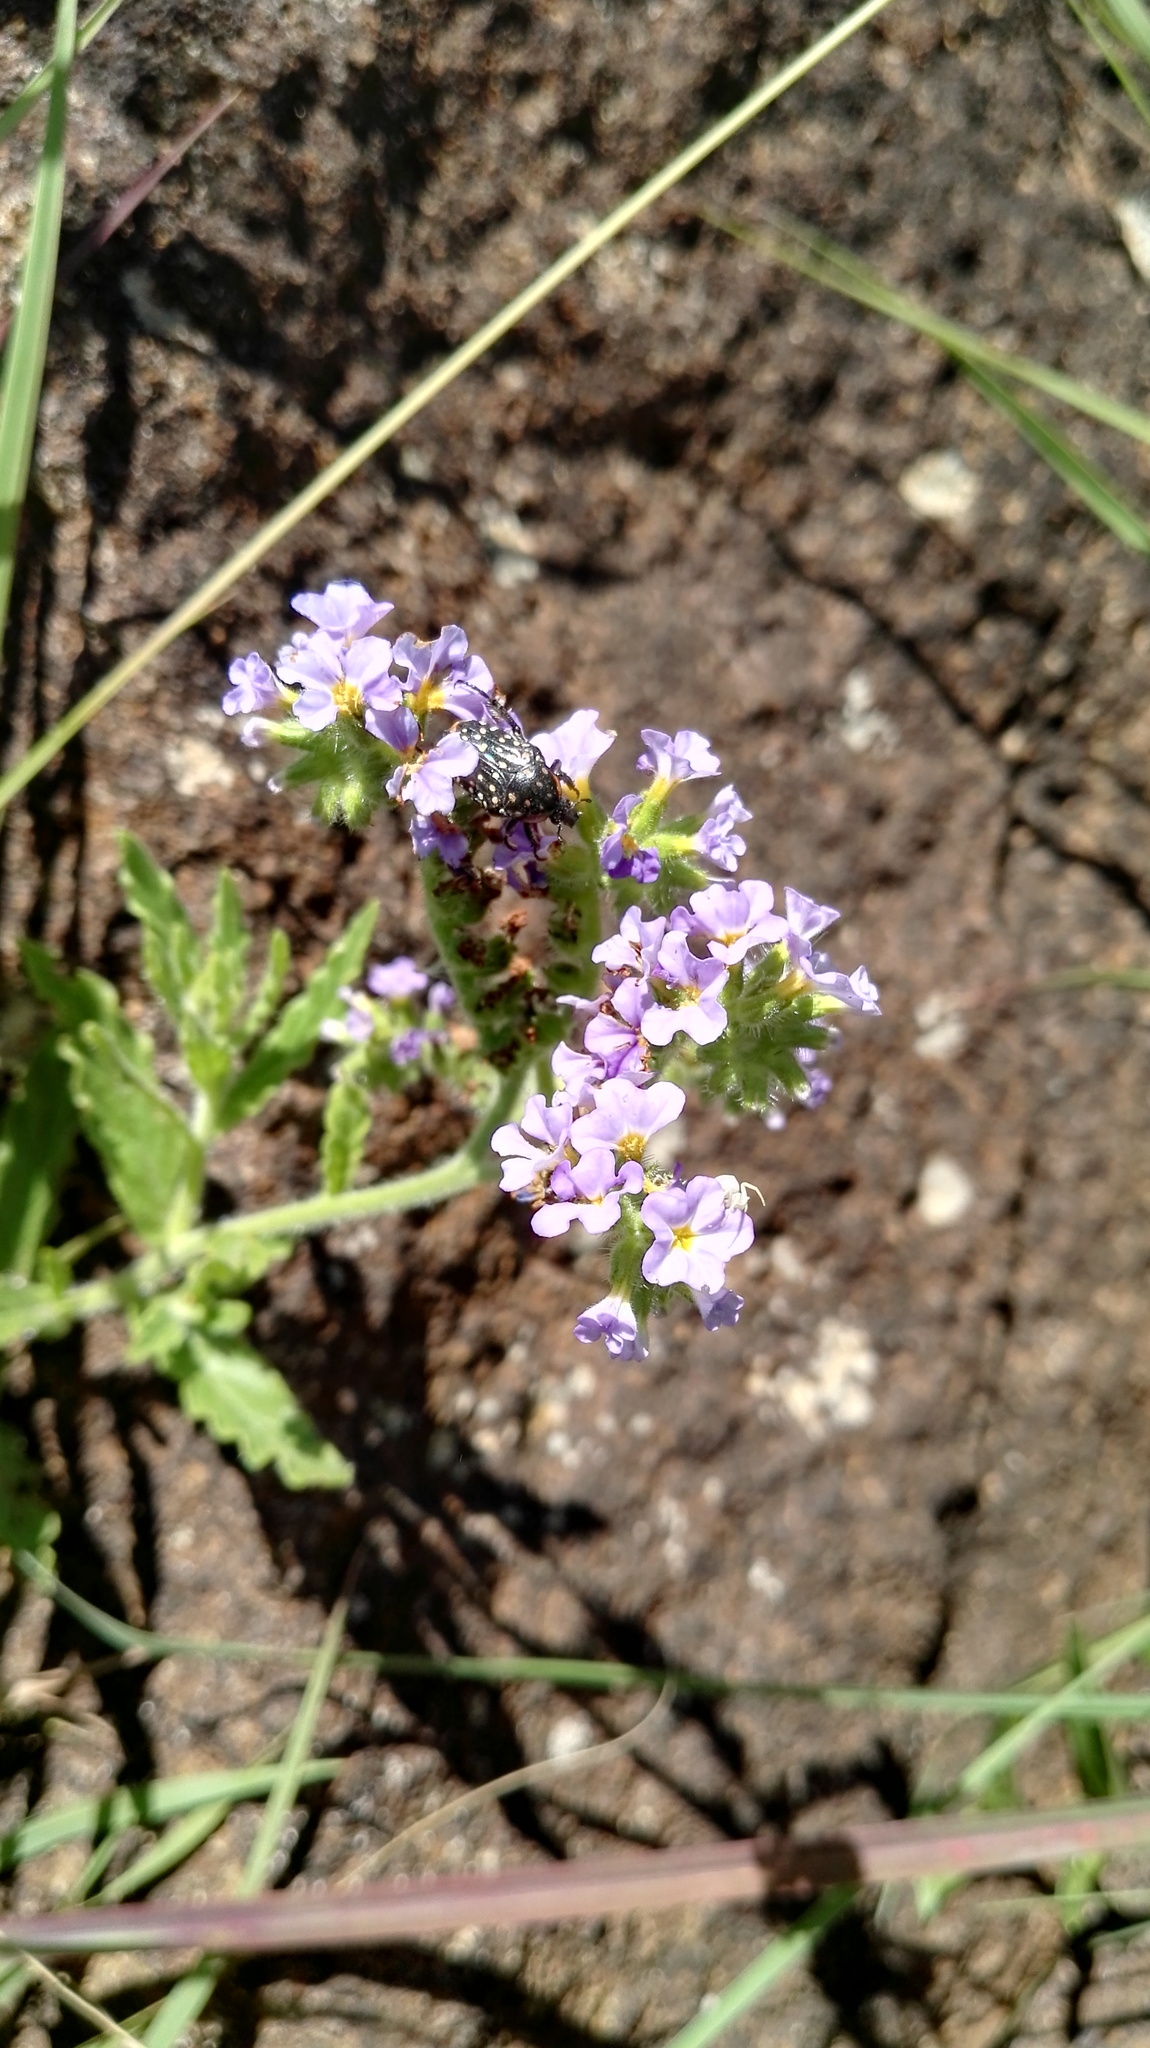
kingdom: Plantae
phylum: Tracheophyta
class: Magnoliopsida
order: Boraginales
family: Heliotropiaceae
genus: Heliotropium
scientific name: Heliotropium amplexicaule
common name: Clasping heliotrope
